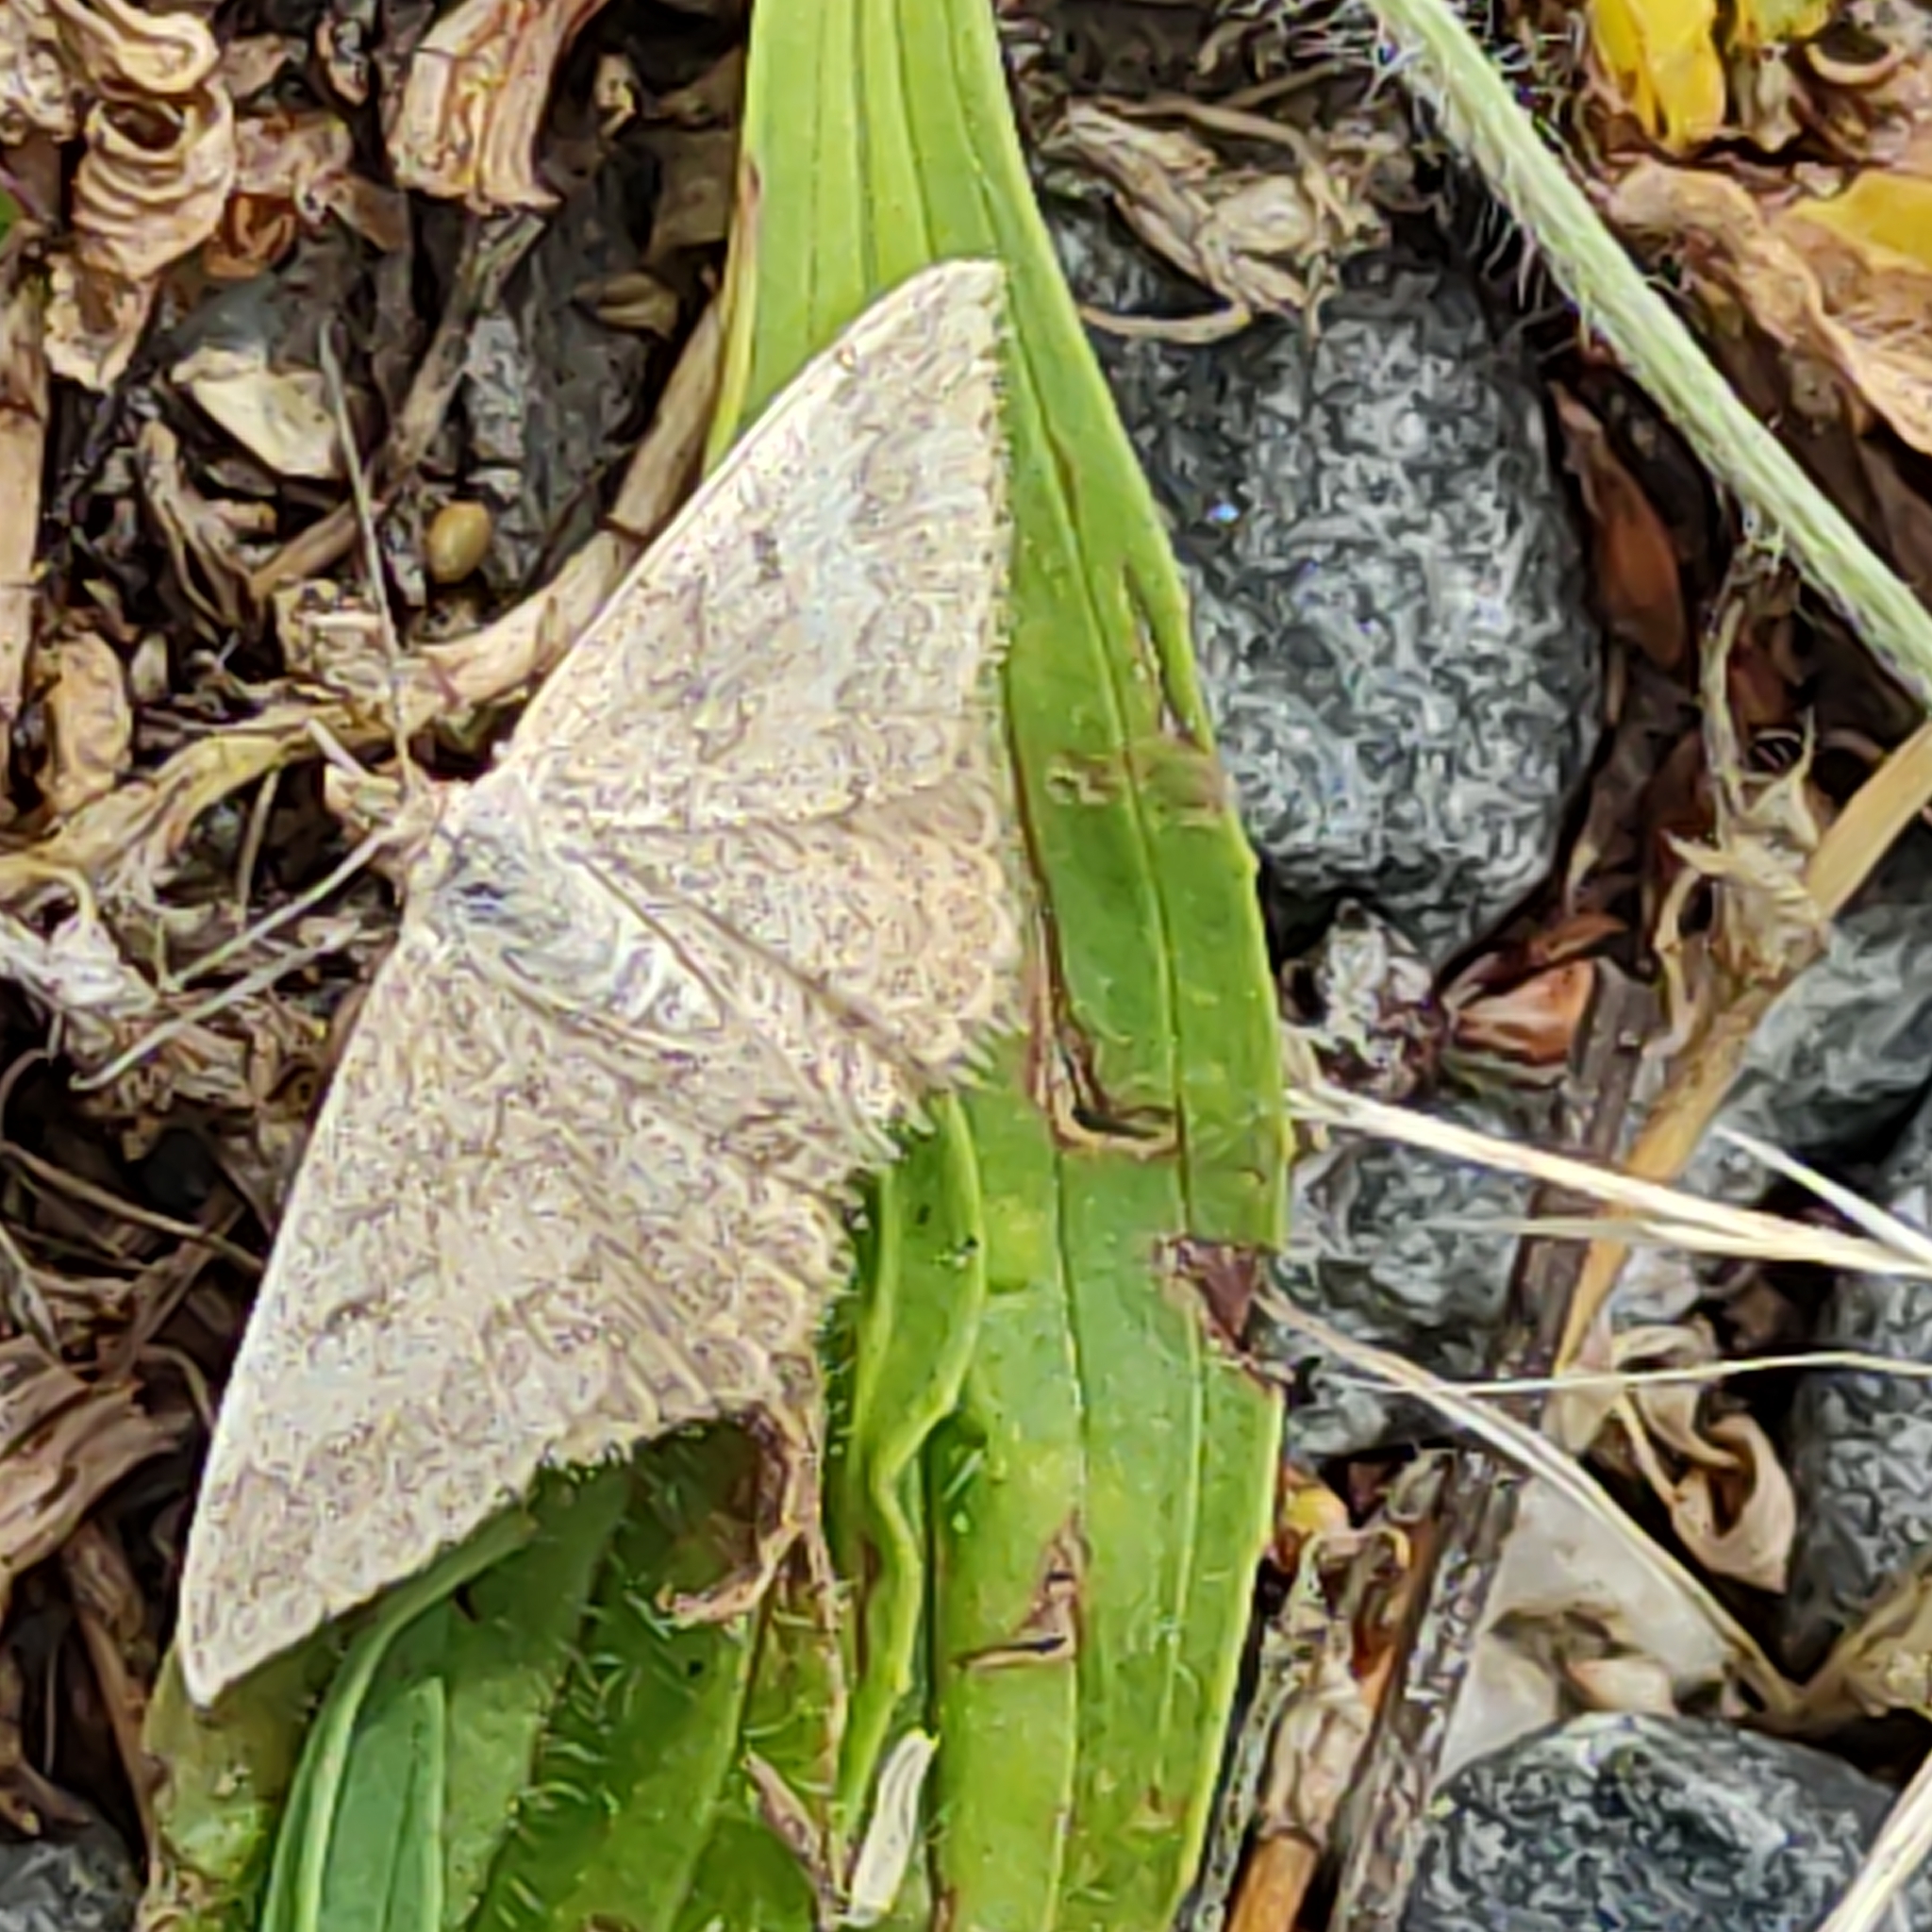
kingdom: Animalia
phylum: Arthropoda
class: Insecta
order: Lepidoptera
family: Geometridae
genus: Scopula
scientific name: Scopula rubraria
